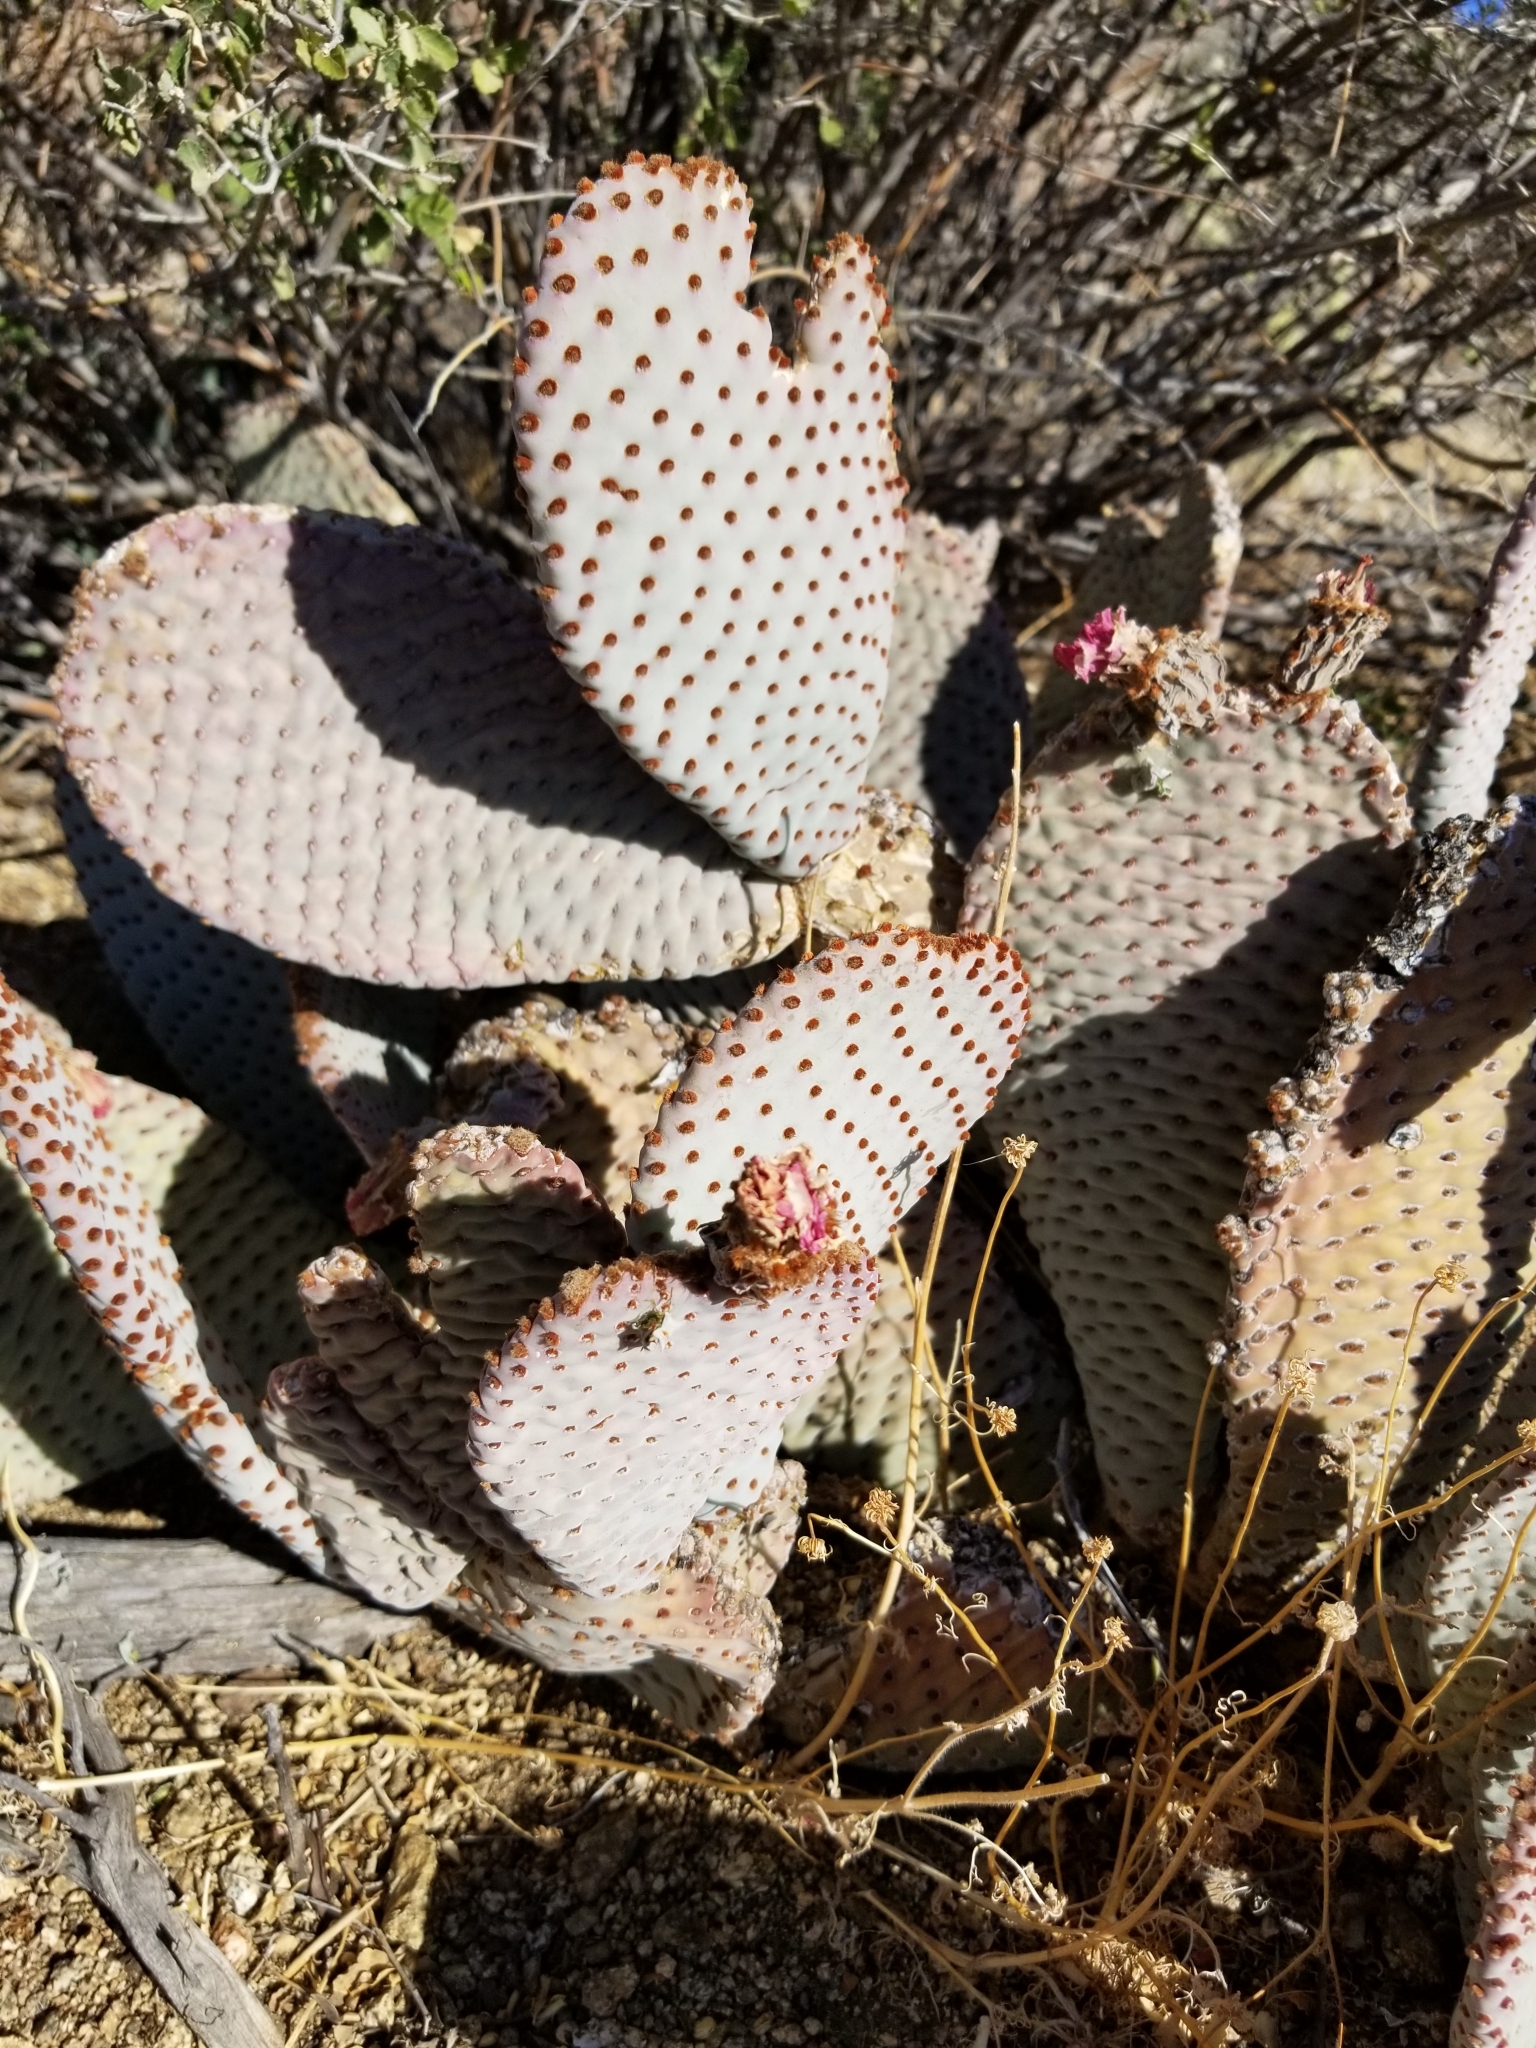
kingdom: Plantae
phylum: Tracheophyta
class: Magnoliopsida
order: Caryophyllales
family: Cactaceae
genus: Opuntia
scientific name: Opuntia basilaris
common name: Beavertail prickly-pear
